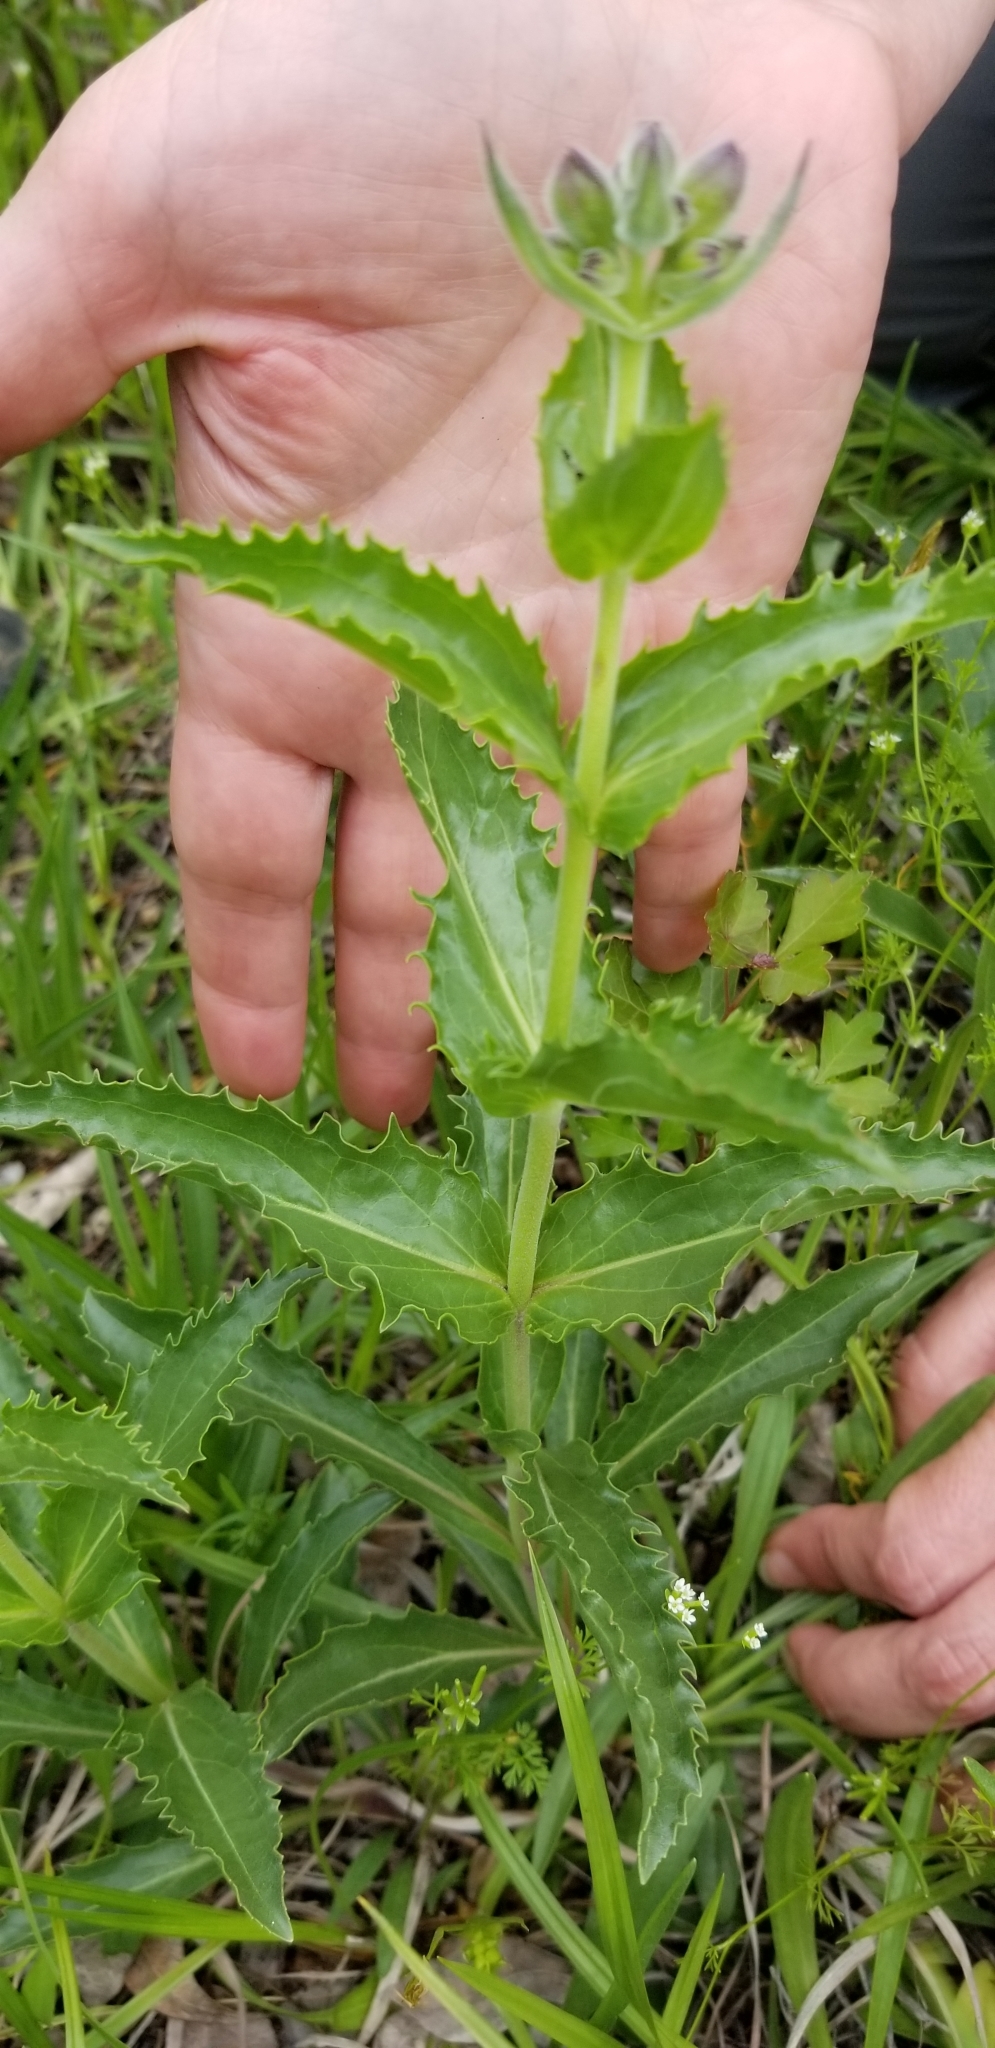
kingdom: Plantae
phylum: Tracheophyta
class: Magnoliopsida
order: Lamiales
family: Plantaginaceae
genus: Penstemon
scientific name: Penstemon cobaea
